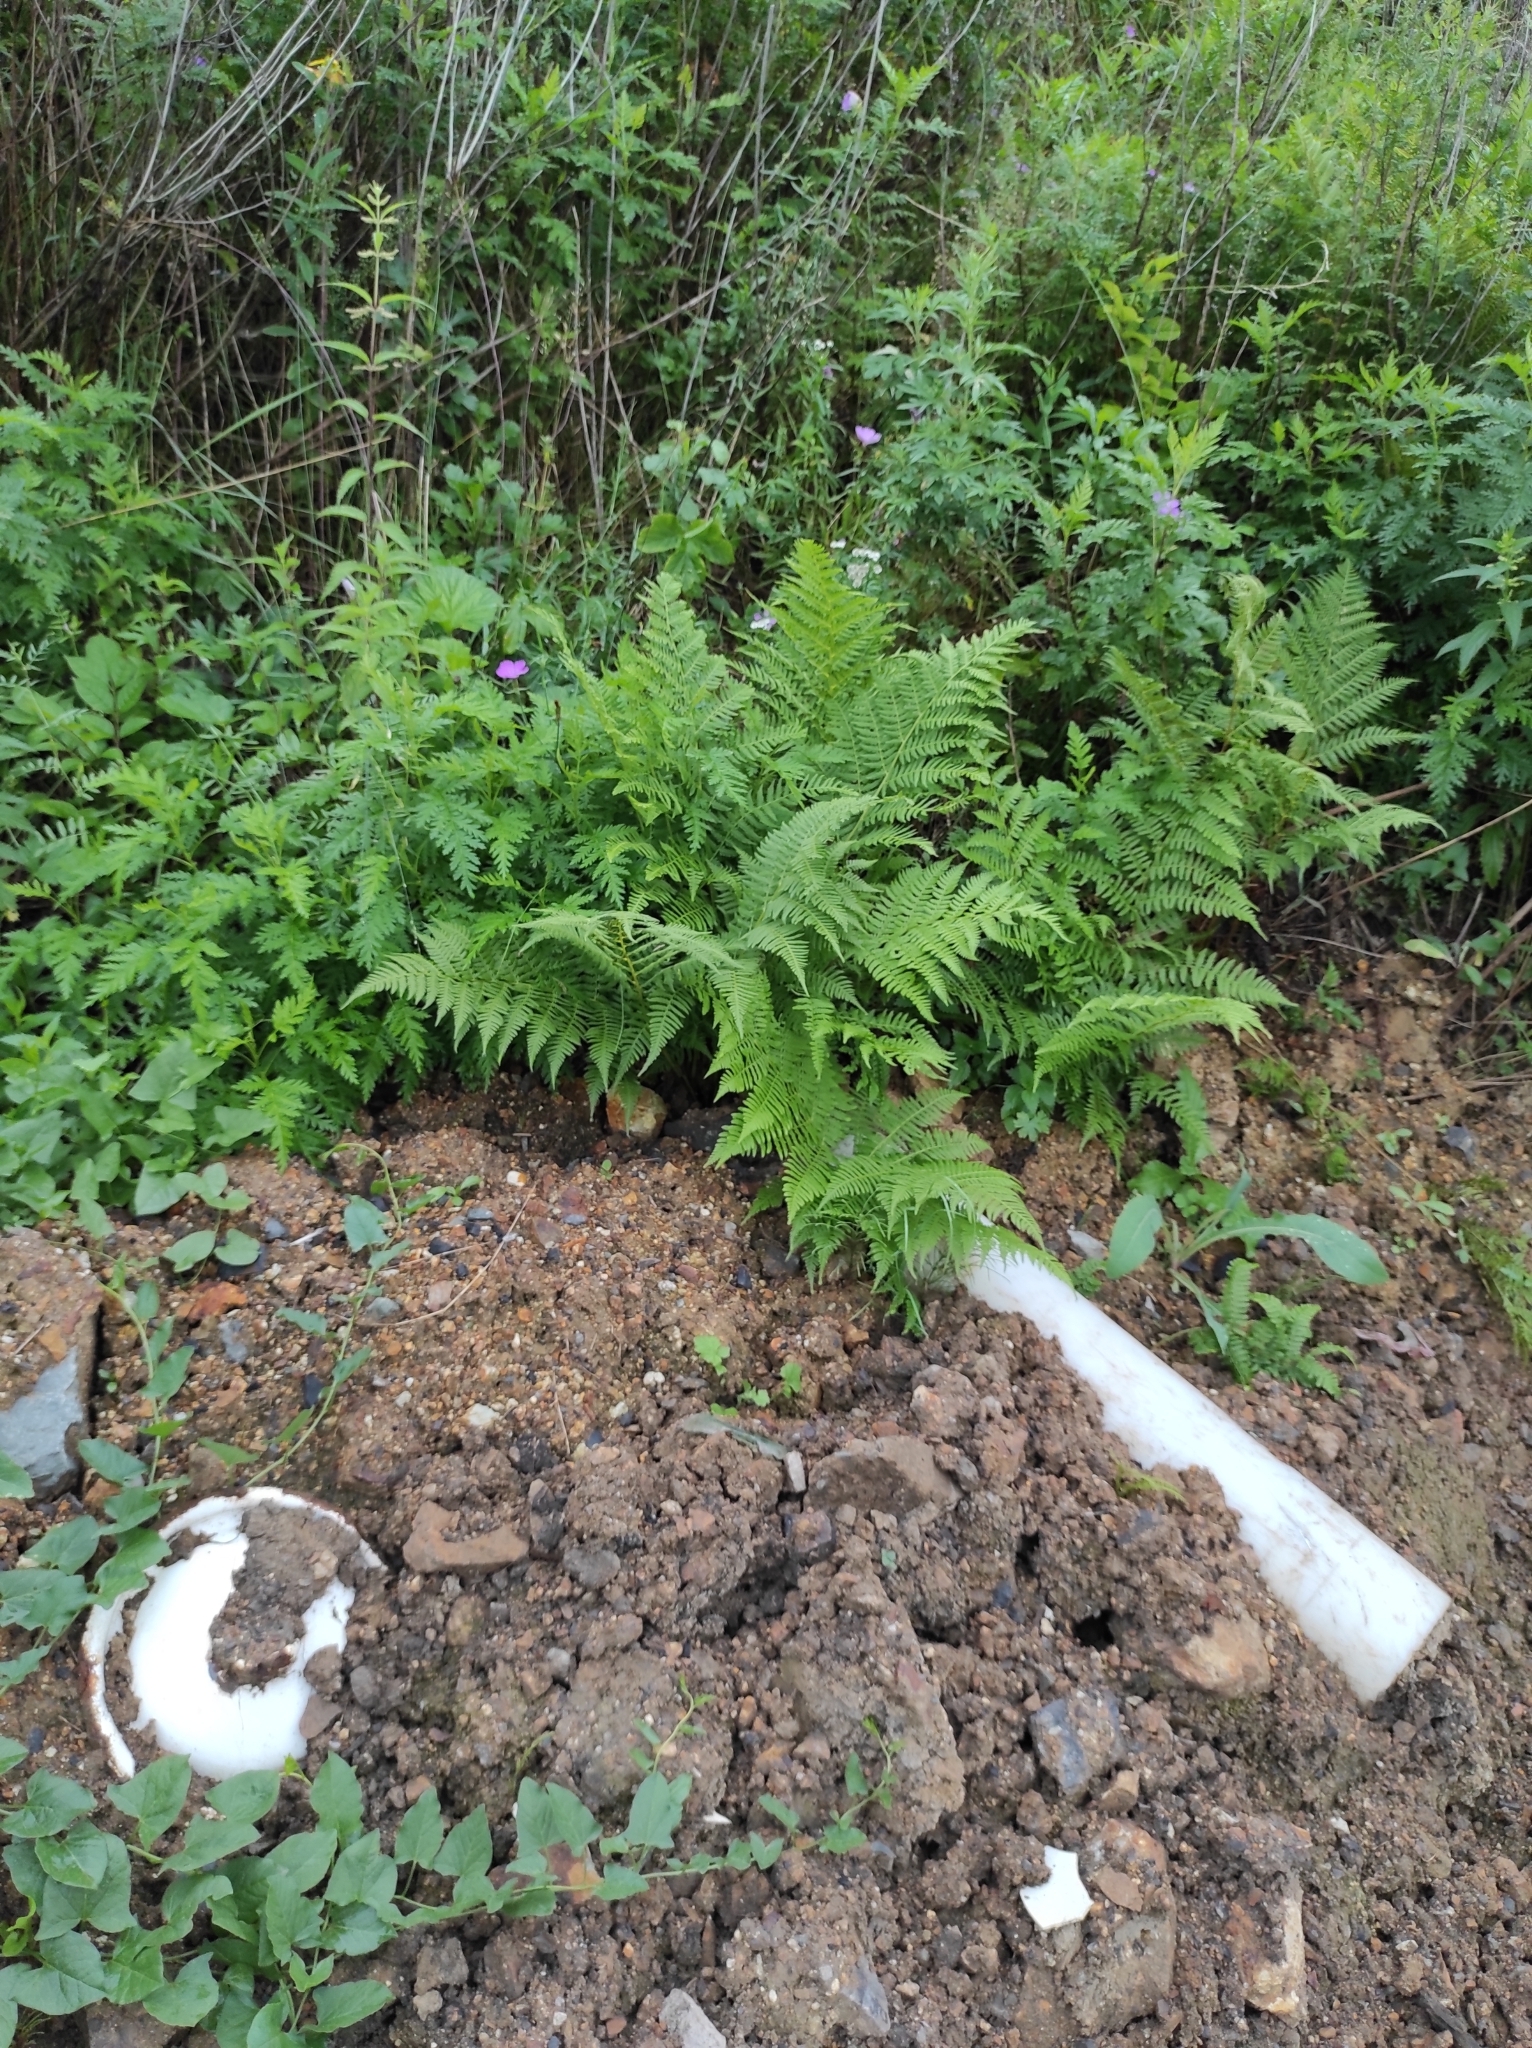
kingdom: Plantae
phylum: Tracheophyta
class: Polypodiopsida
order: Polypodiales
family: Athyriaceae
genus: Athyrium
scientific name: Athyrium filix-femina
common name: Lady fern
